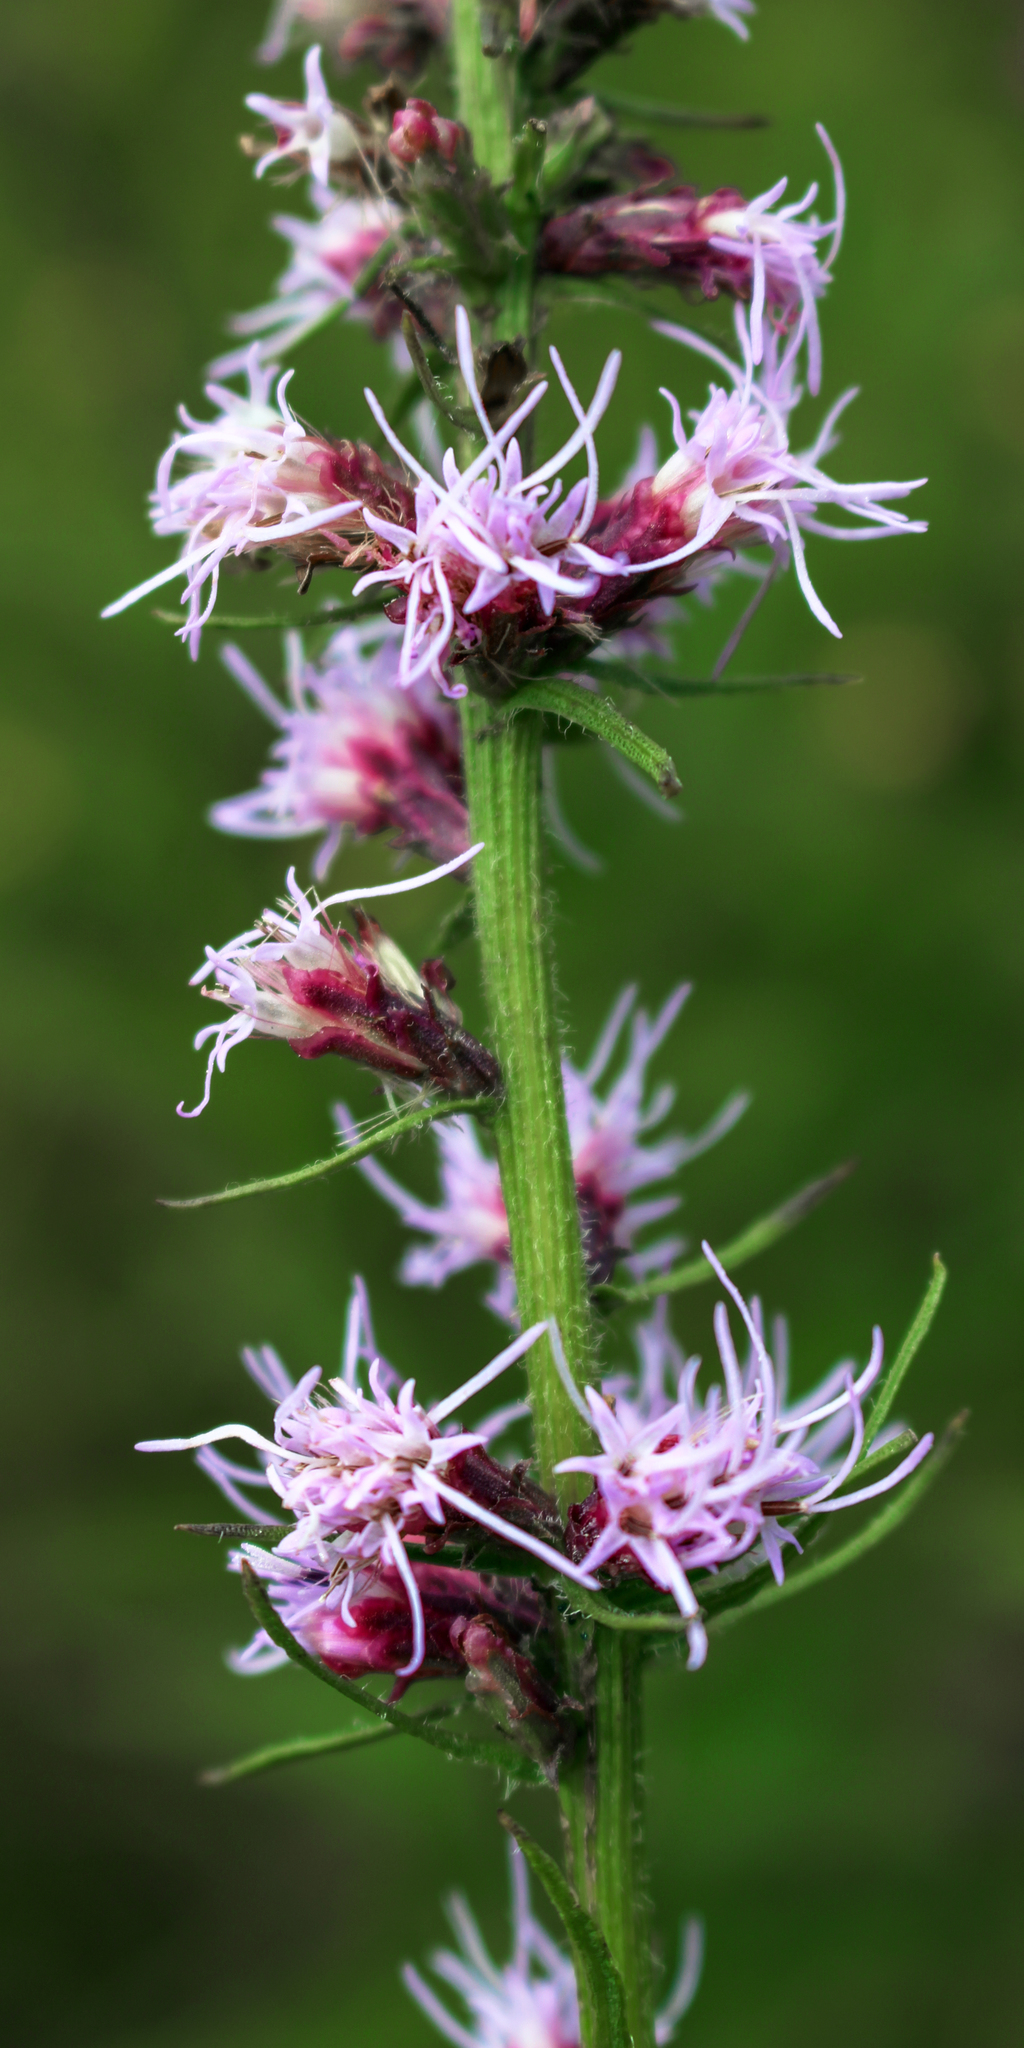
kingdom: Plantae
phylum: Tracheophyta
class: Magnoliopsida
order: Asterales
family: Asteraceae
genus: Liatris
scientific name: Liatris pycnostachya
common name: Cattail gayfeather
